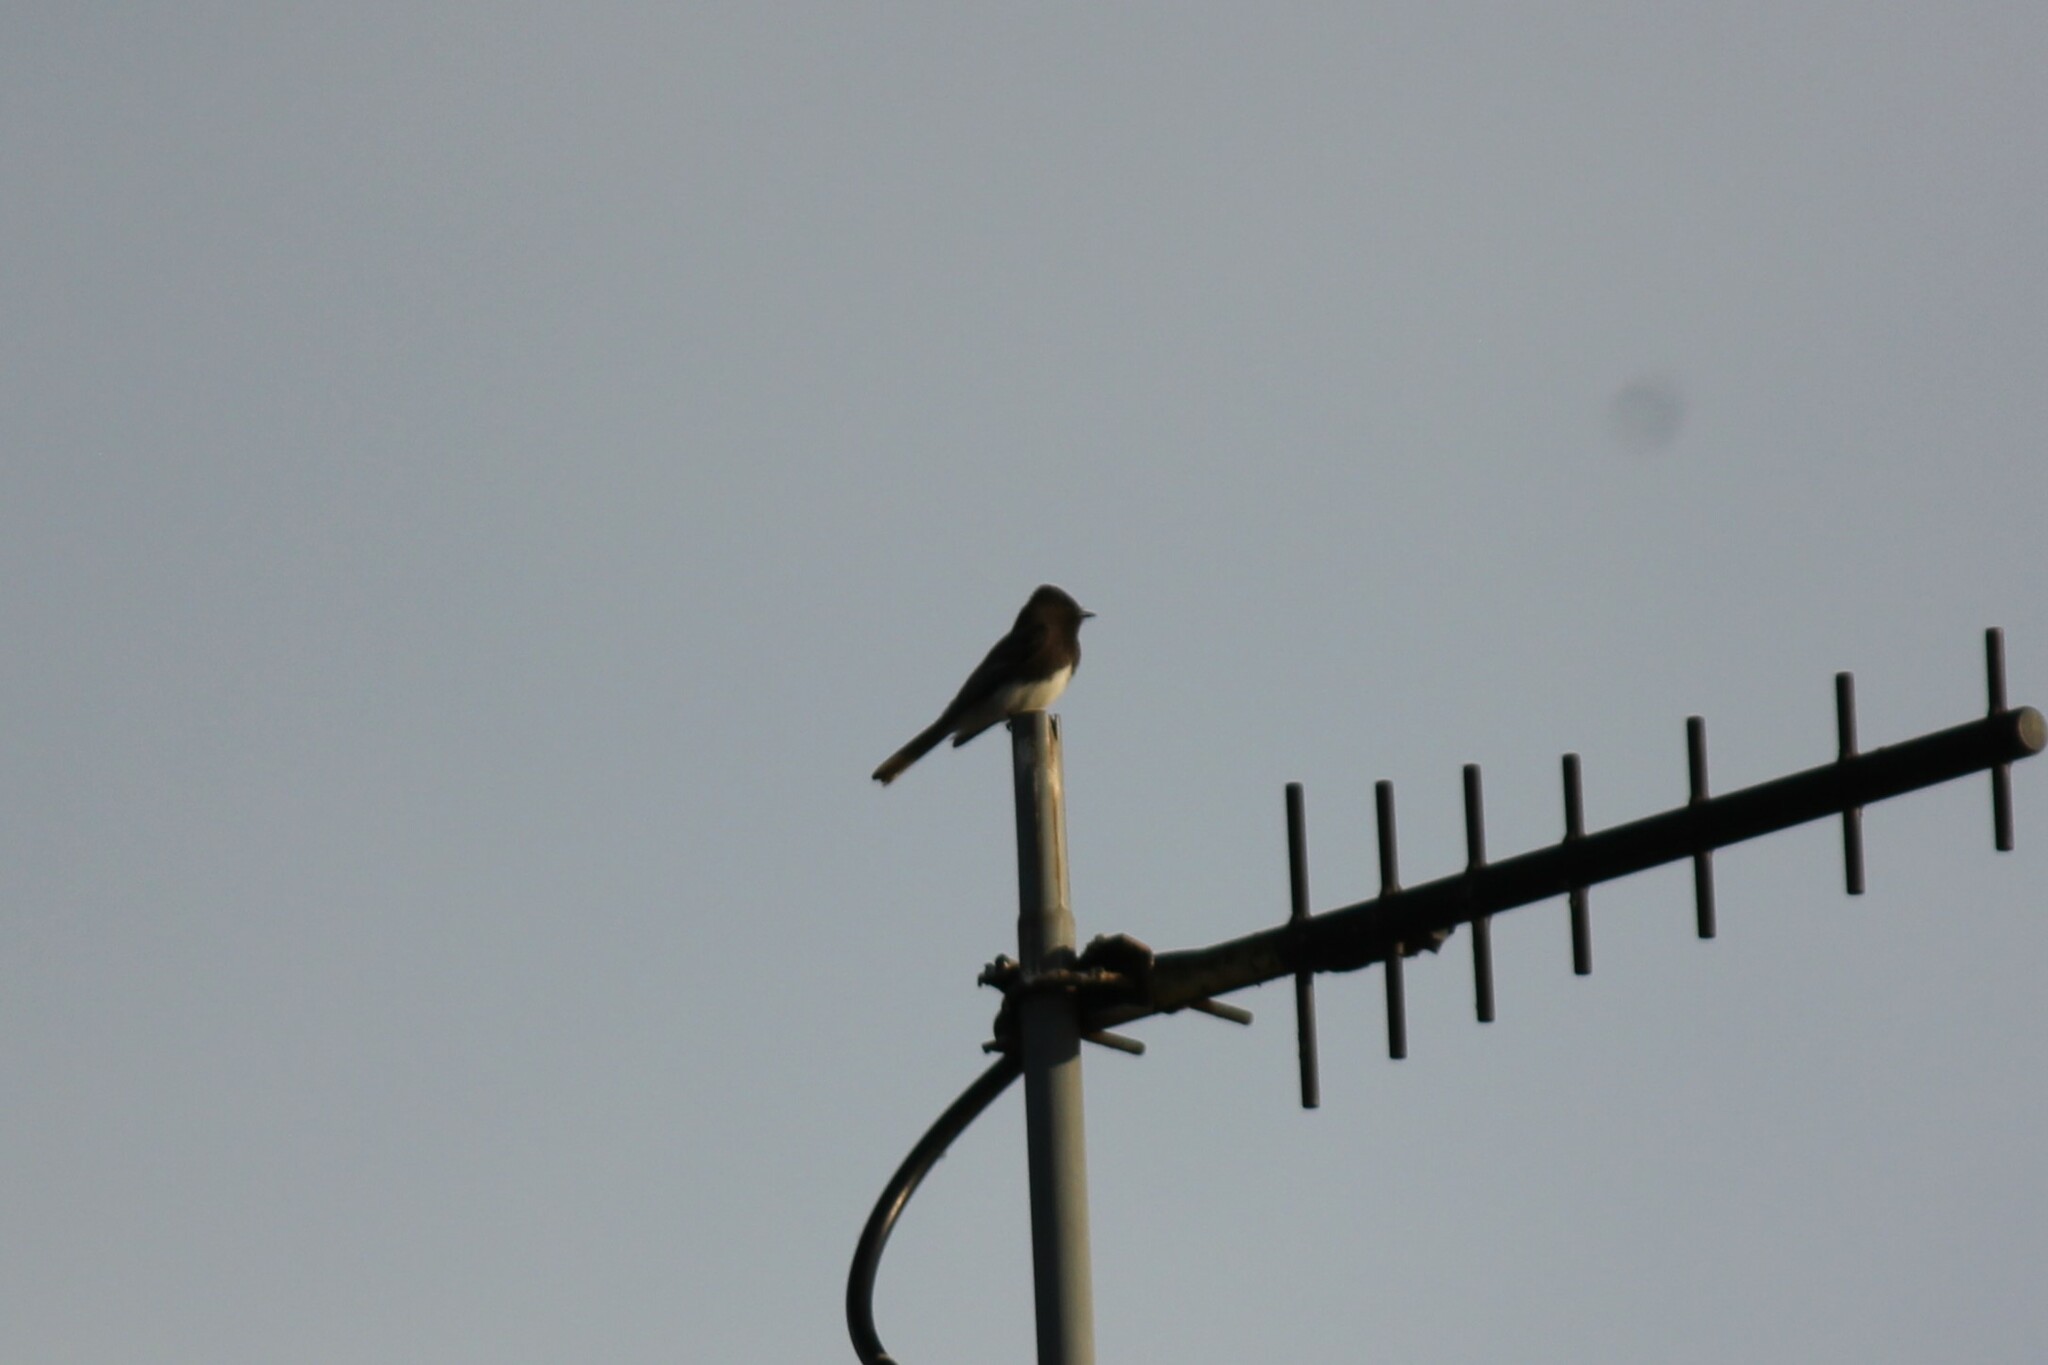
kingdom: Animalia
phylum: Chordata
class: Aves
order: Passeriformes
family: Tyrannidae
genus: Sayornis
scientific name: Sayornis nigricans
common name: Black phoebe
